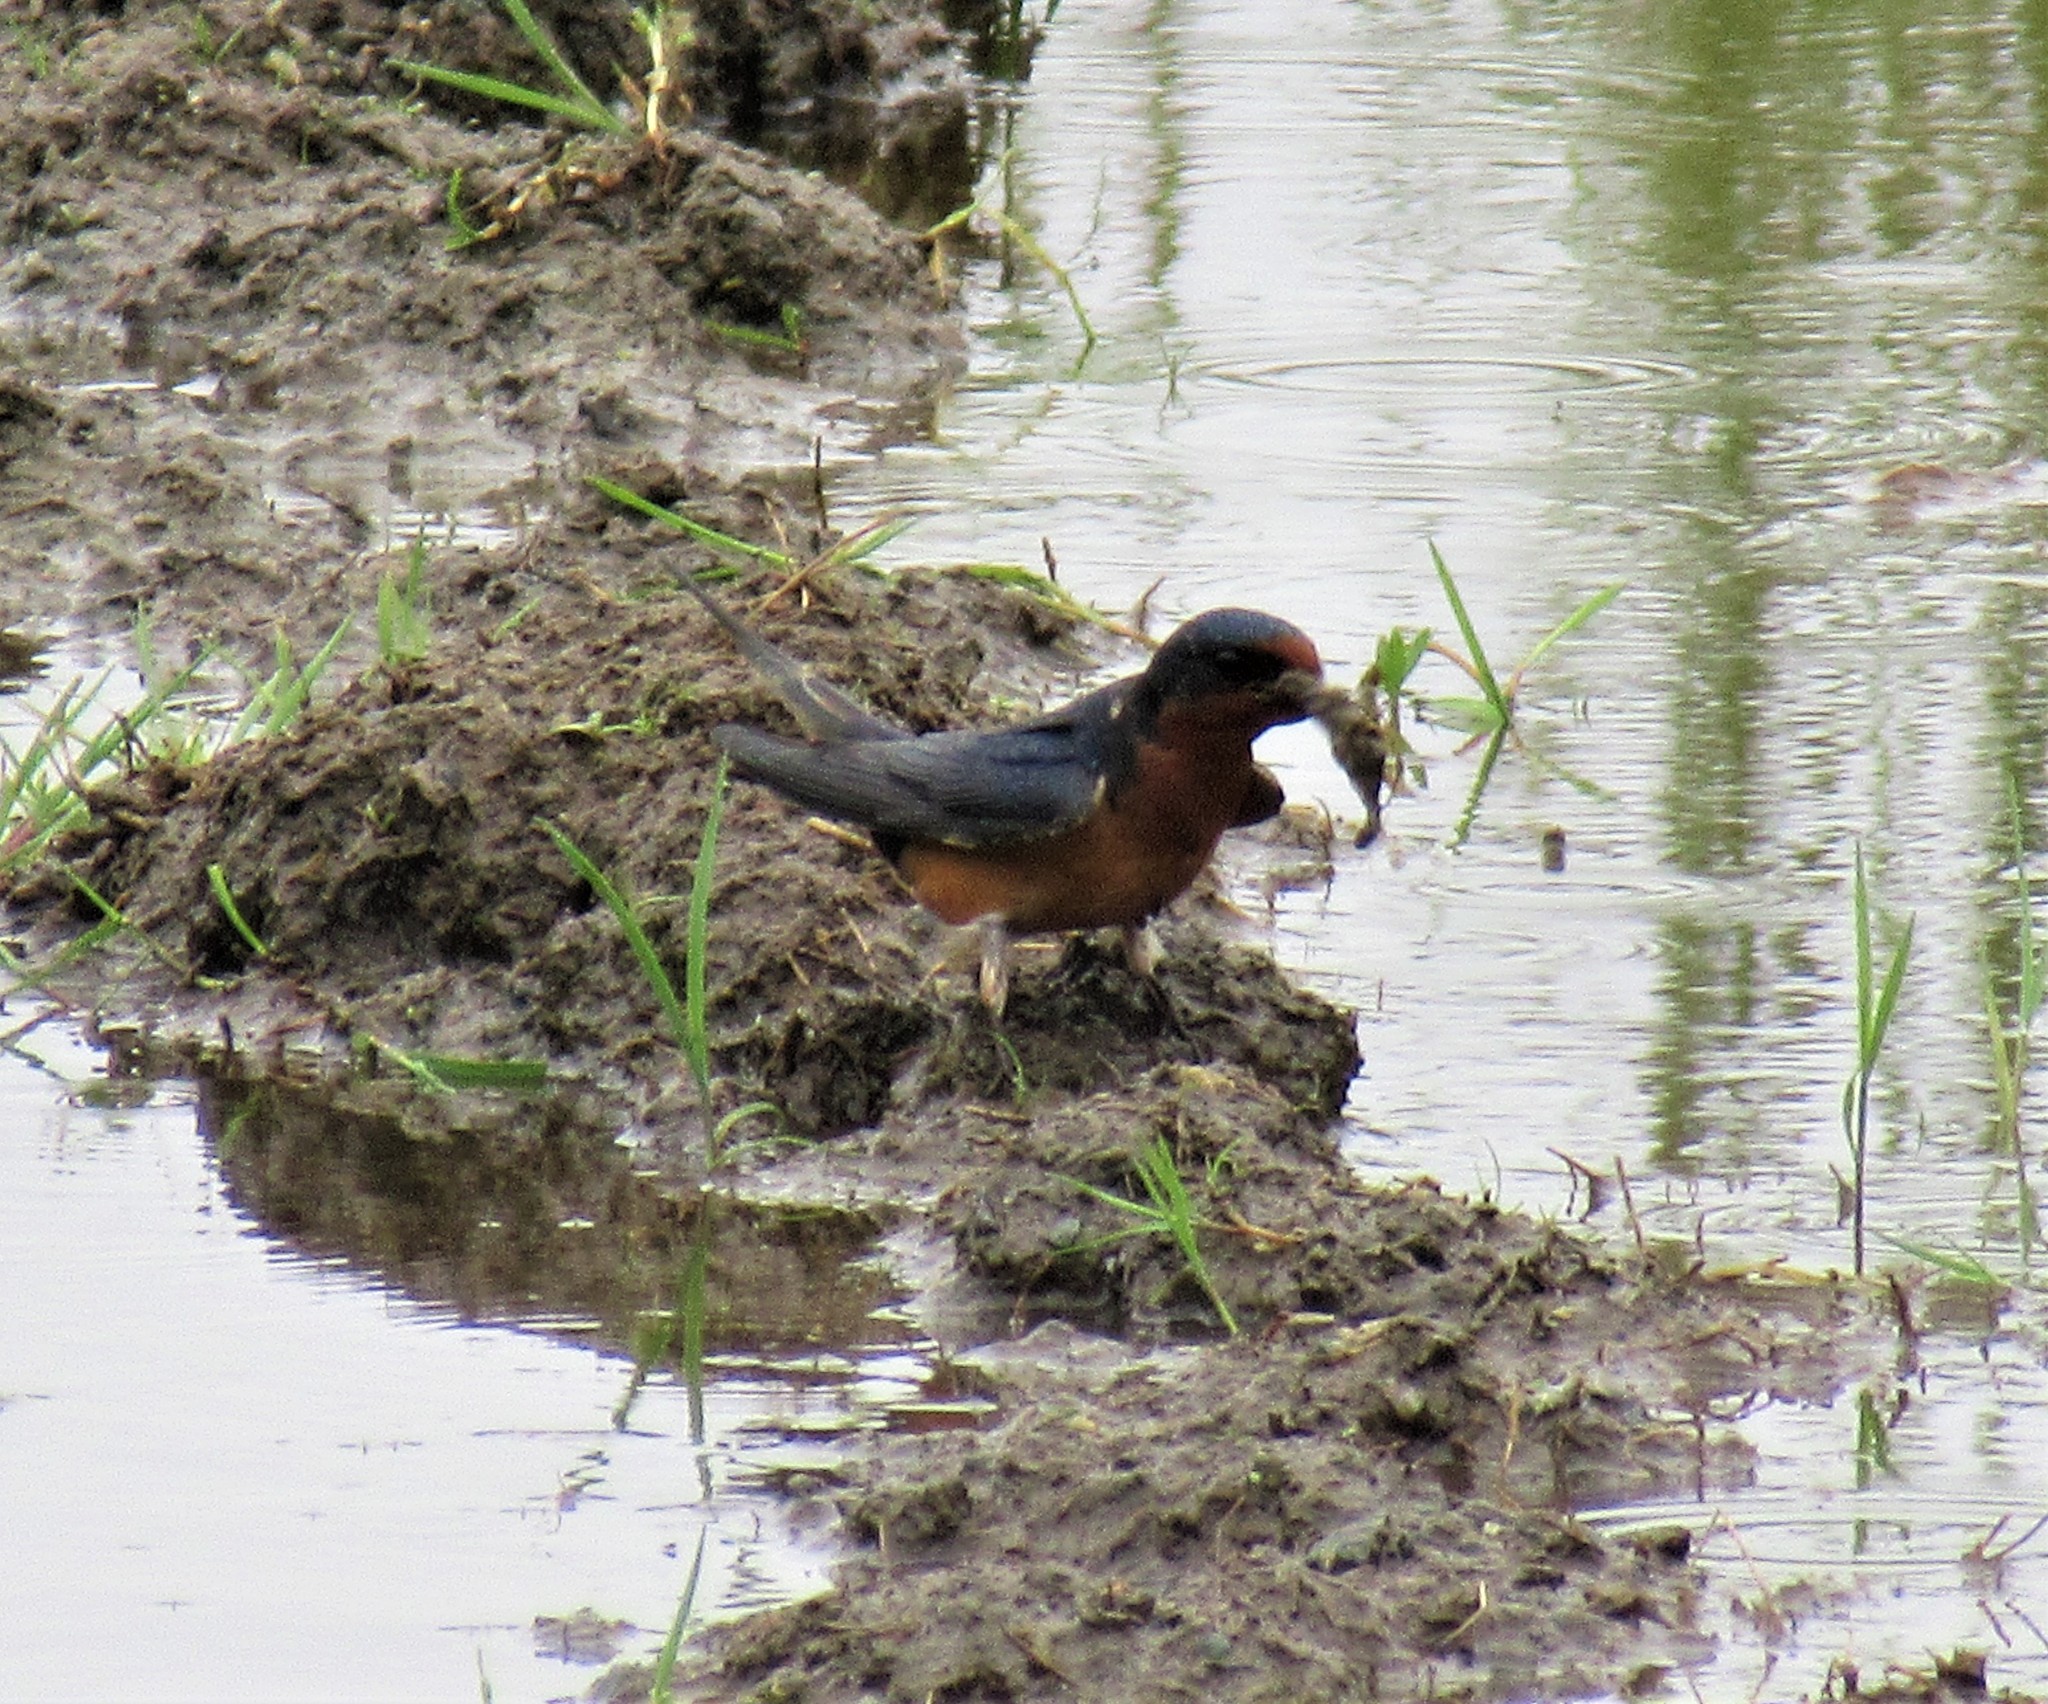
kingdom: Animalia
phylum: Chordata
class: Aves
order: Passeriformes
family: Hirundinidae
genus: Hirundo
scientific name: Hirundo rustica
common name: Barn swallow
